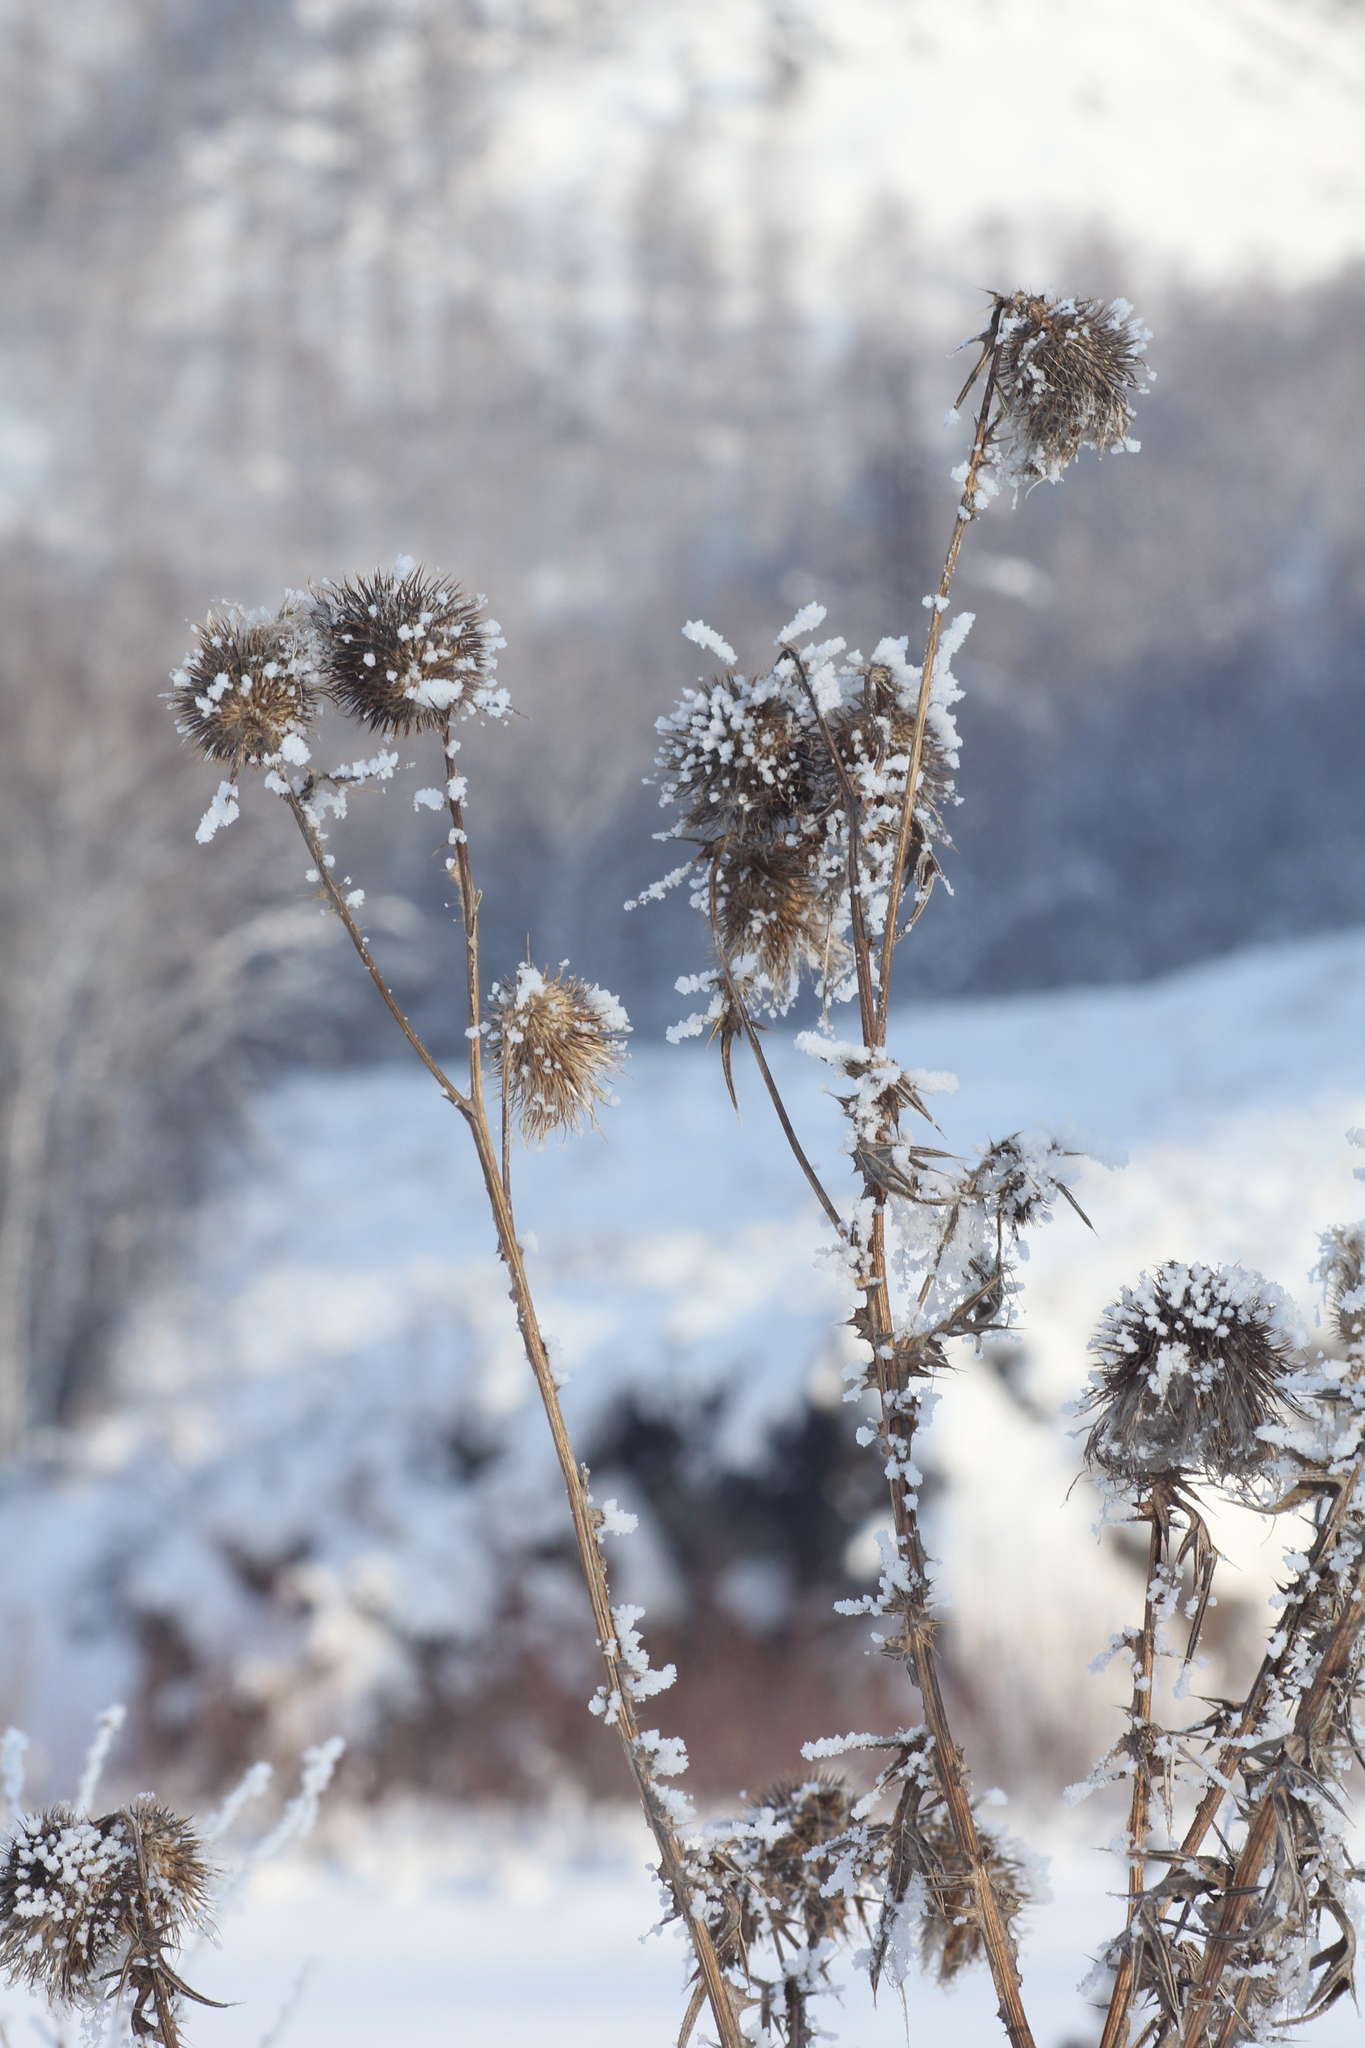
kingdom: Plantae
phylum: Tracheophyta
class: Magnoliopsida
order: Asterales
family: Asteraceae
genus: Cirsium
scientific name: Cirsium vulgare
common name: Bull thistle
